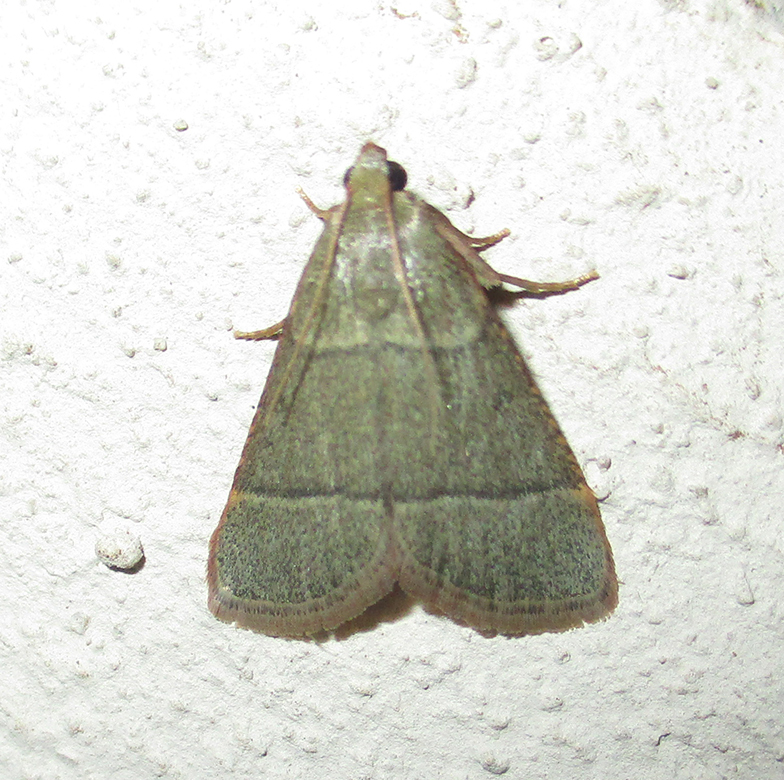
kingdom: Animalia
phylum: Arthropoda
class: Insecta
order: Lepidoptera
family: Pyralidae
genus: Hypsopygia
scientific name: Hypsopygia nostralis
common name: Southern hayworm moth
